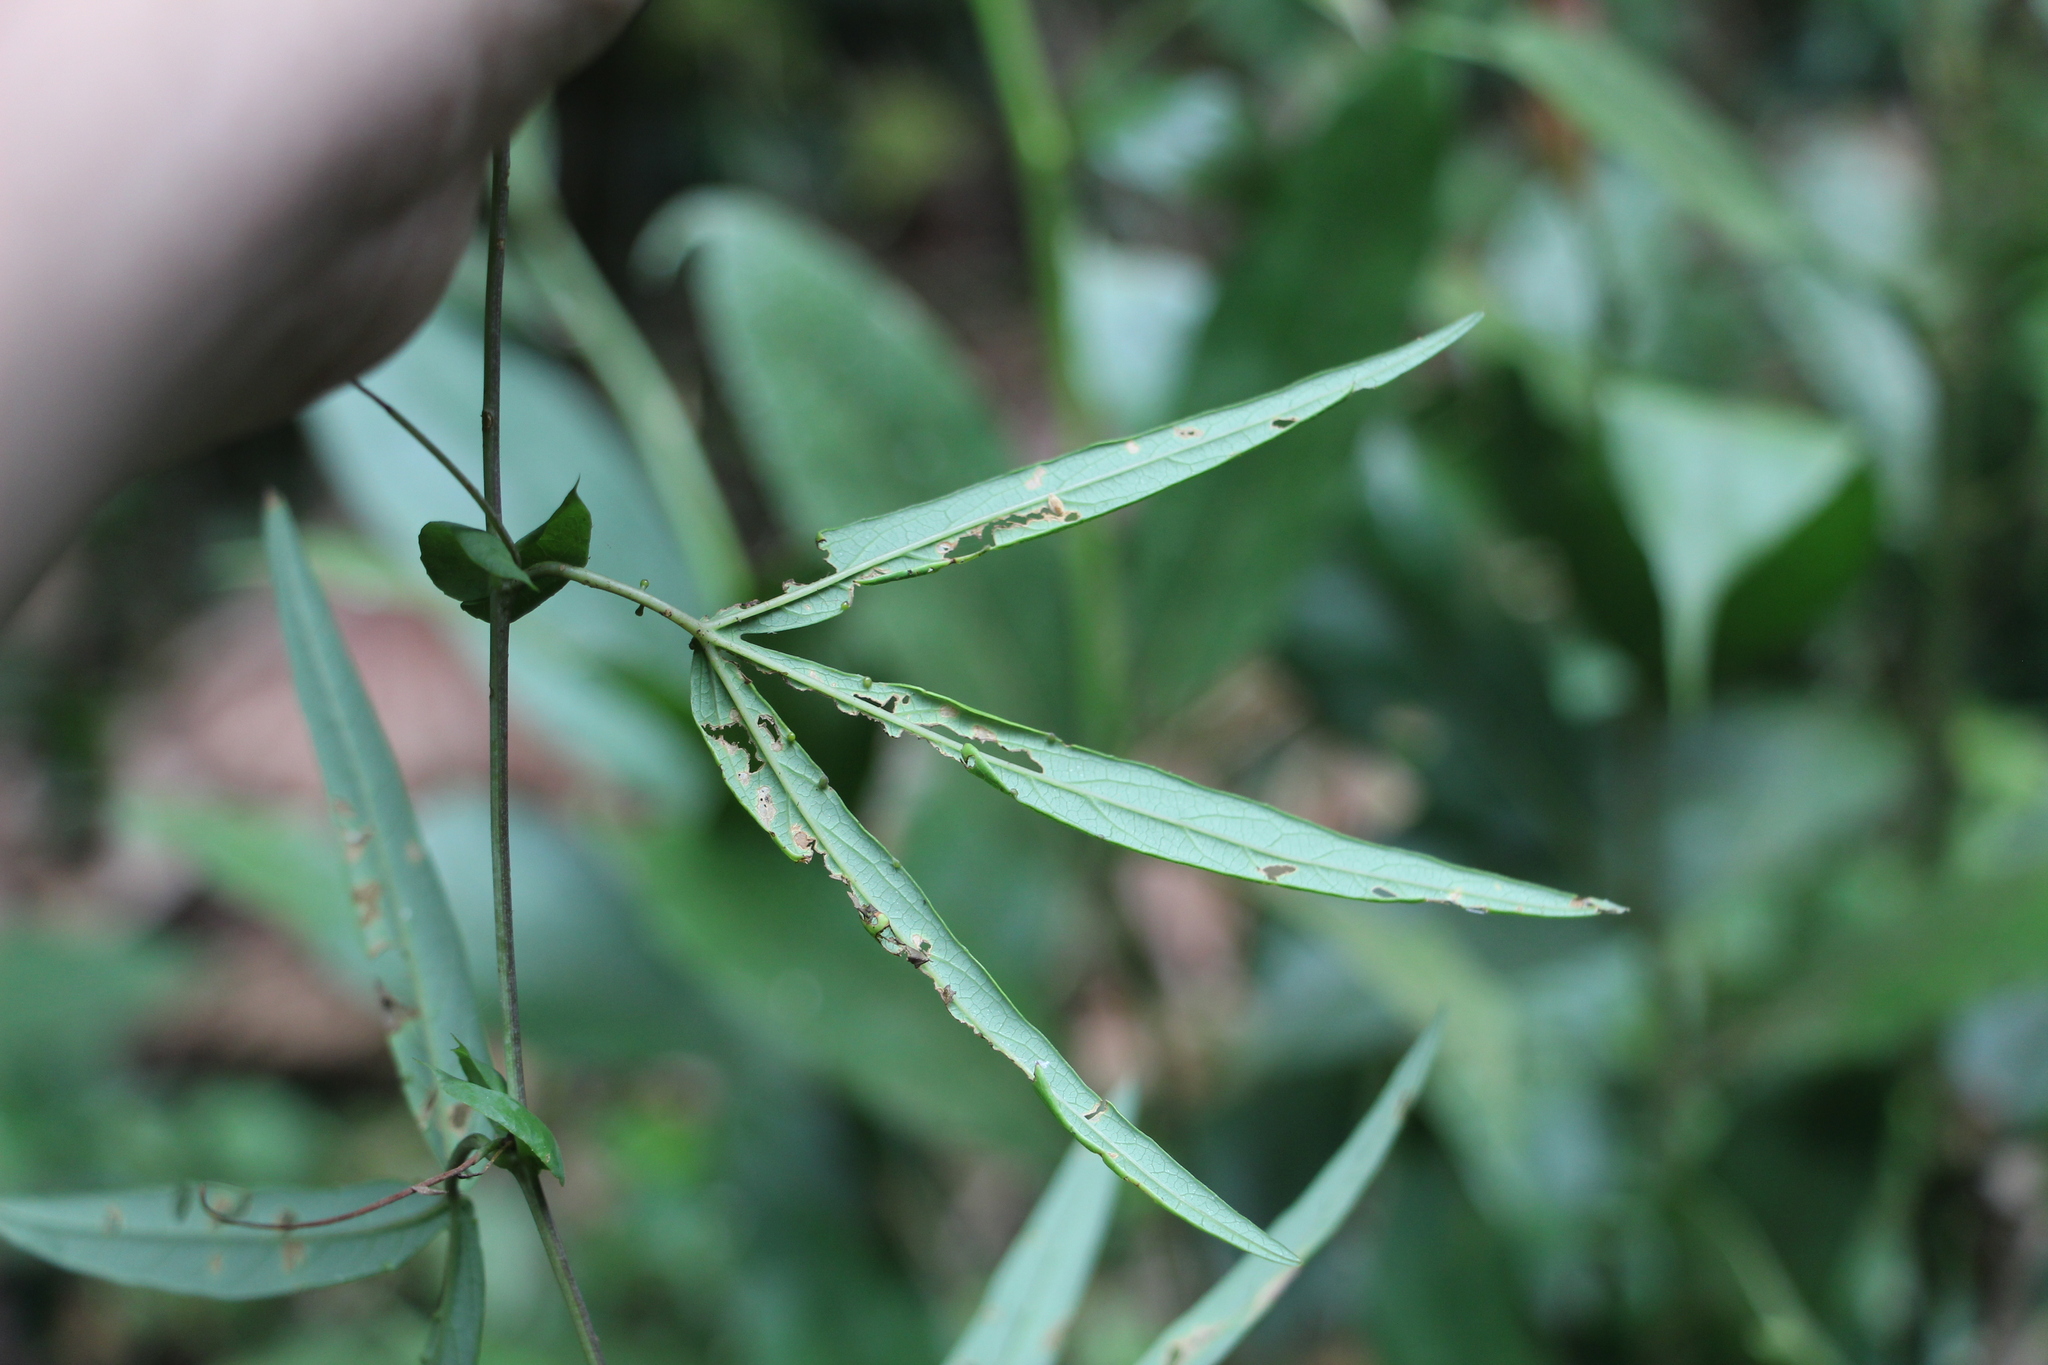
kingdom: Plantae
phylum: Tracheophyta
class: Magnoliopsida
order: Malpighiales
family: Passifloraceae
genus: Passiflora
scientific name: Passiflora lehmannii
